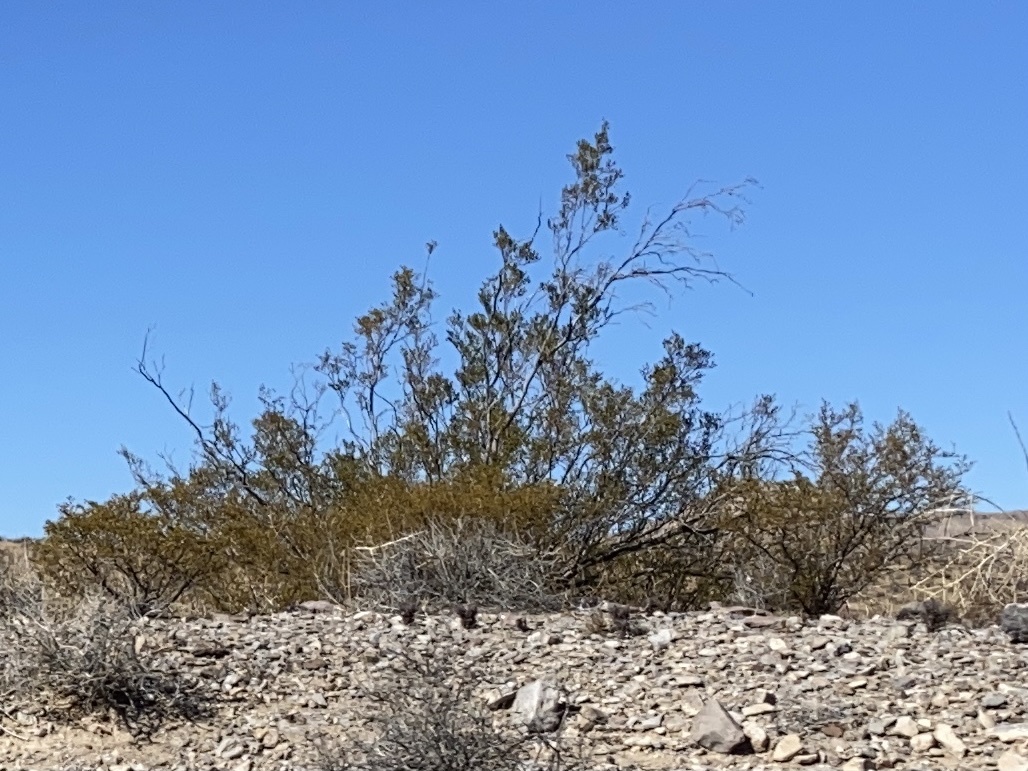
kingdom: Plantae
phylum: Tracheophyta
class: Magnoliopsida
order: Zygophyllales
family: Zygophyllaceae
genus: Larrea
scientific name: Larrea tridentata
